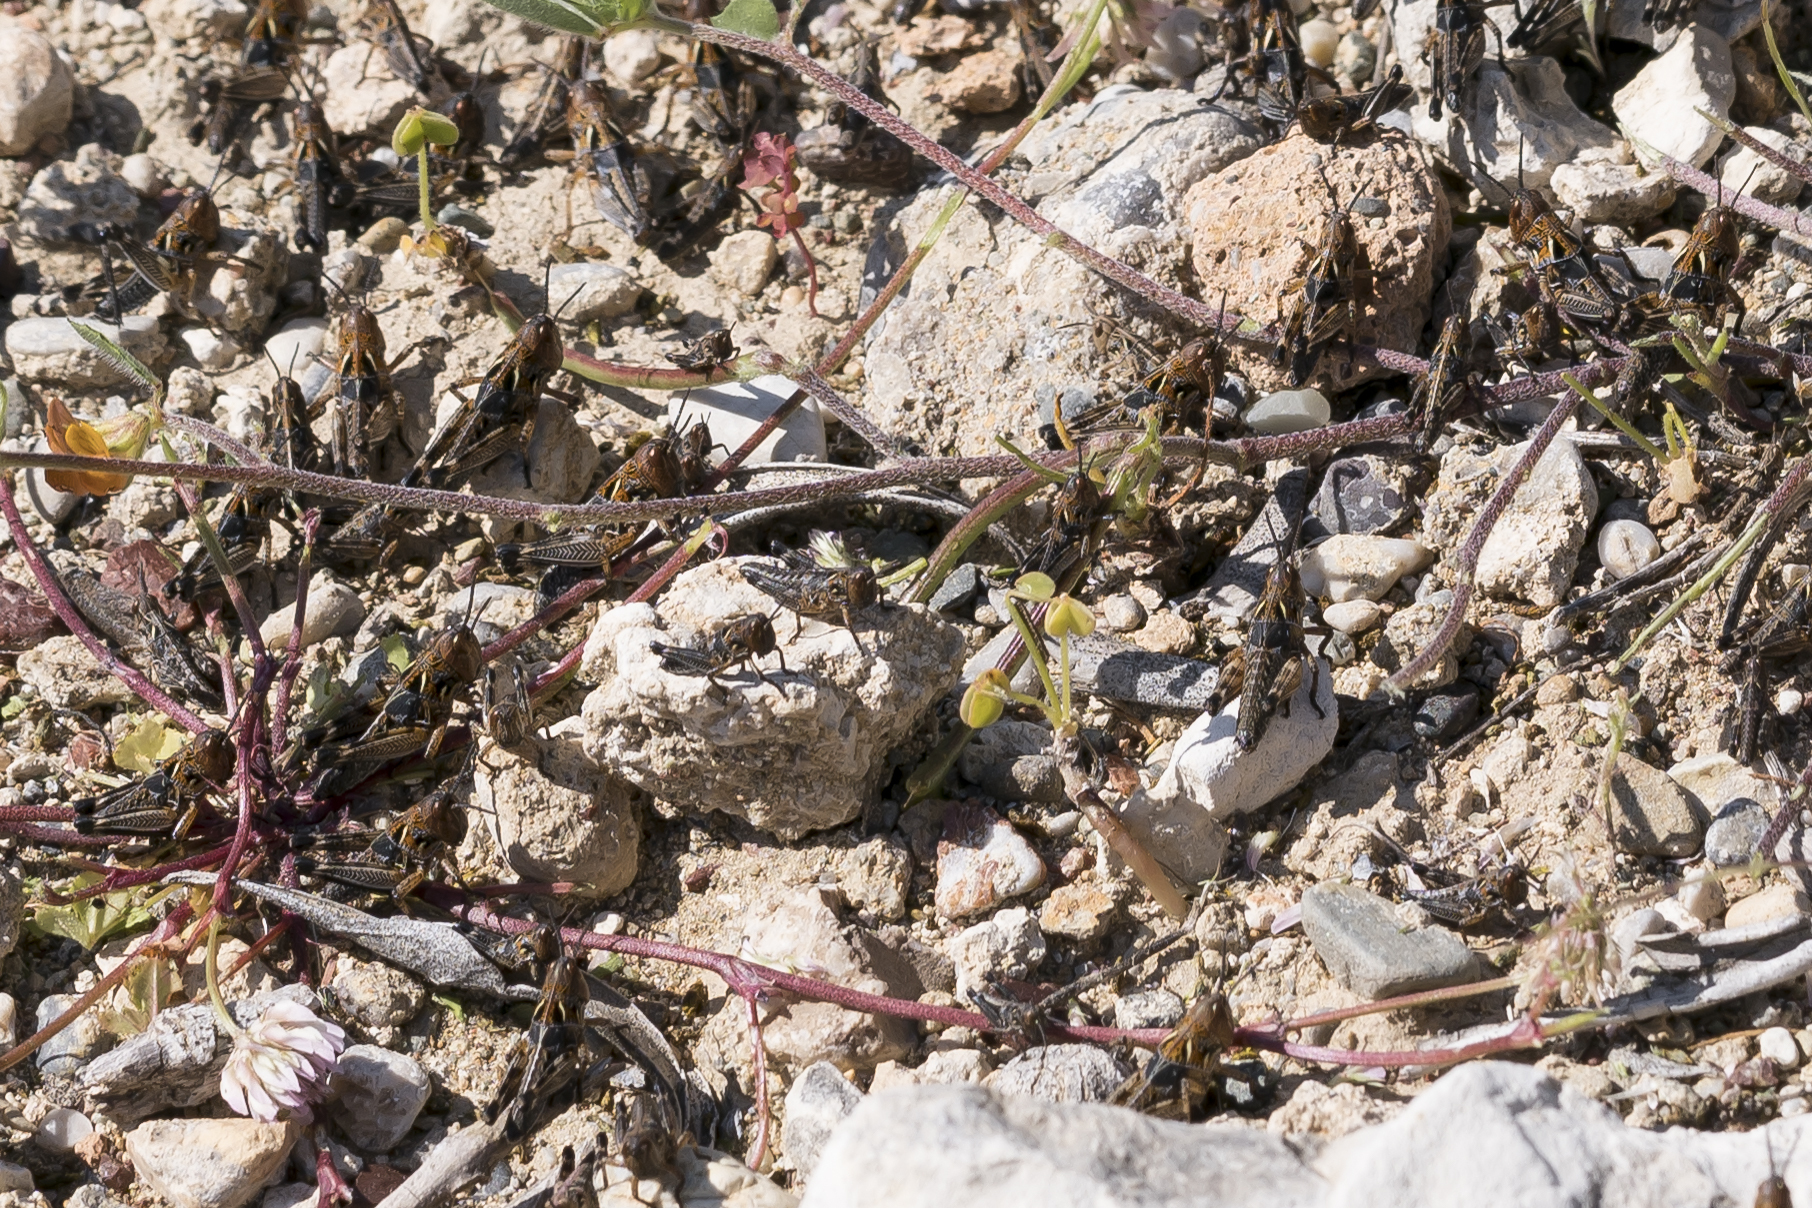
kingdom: Animalia
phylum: Arthropoda
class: Insecta
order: Orthoptera
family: Acrididae
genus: Dociostaurus
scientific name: Dociostaurus maroccanus
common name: Moroccan locust
